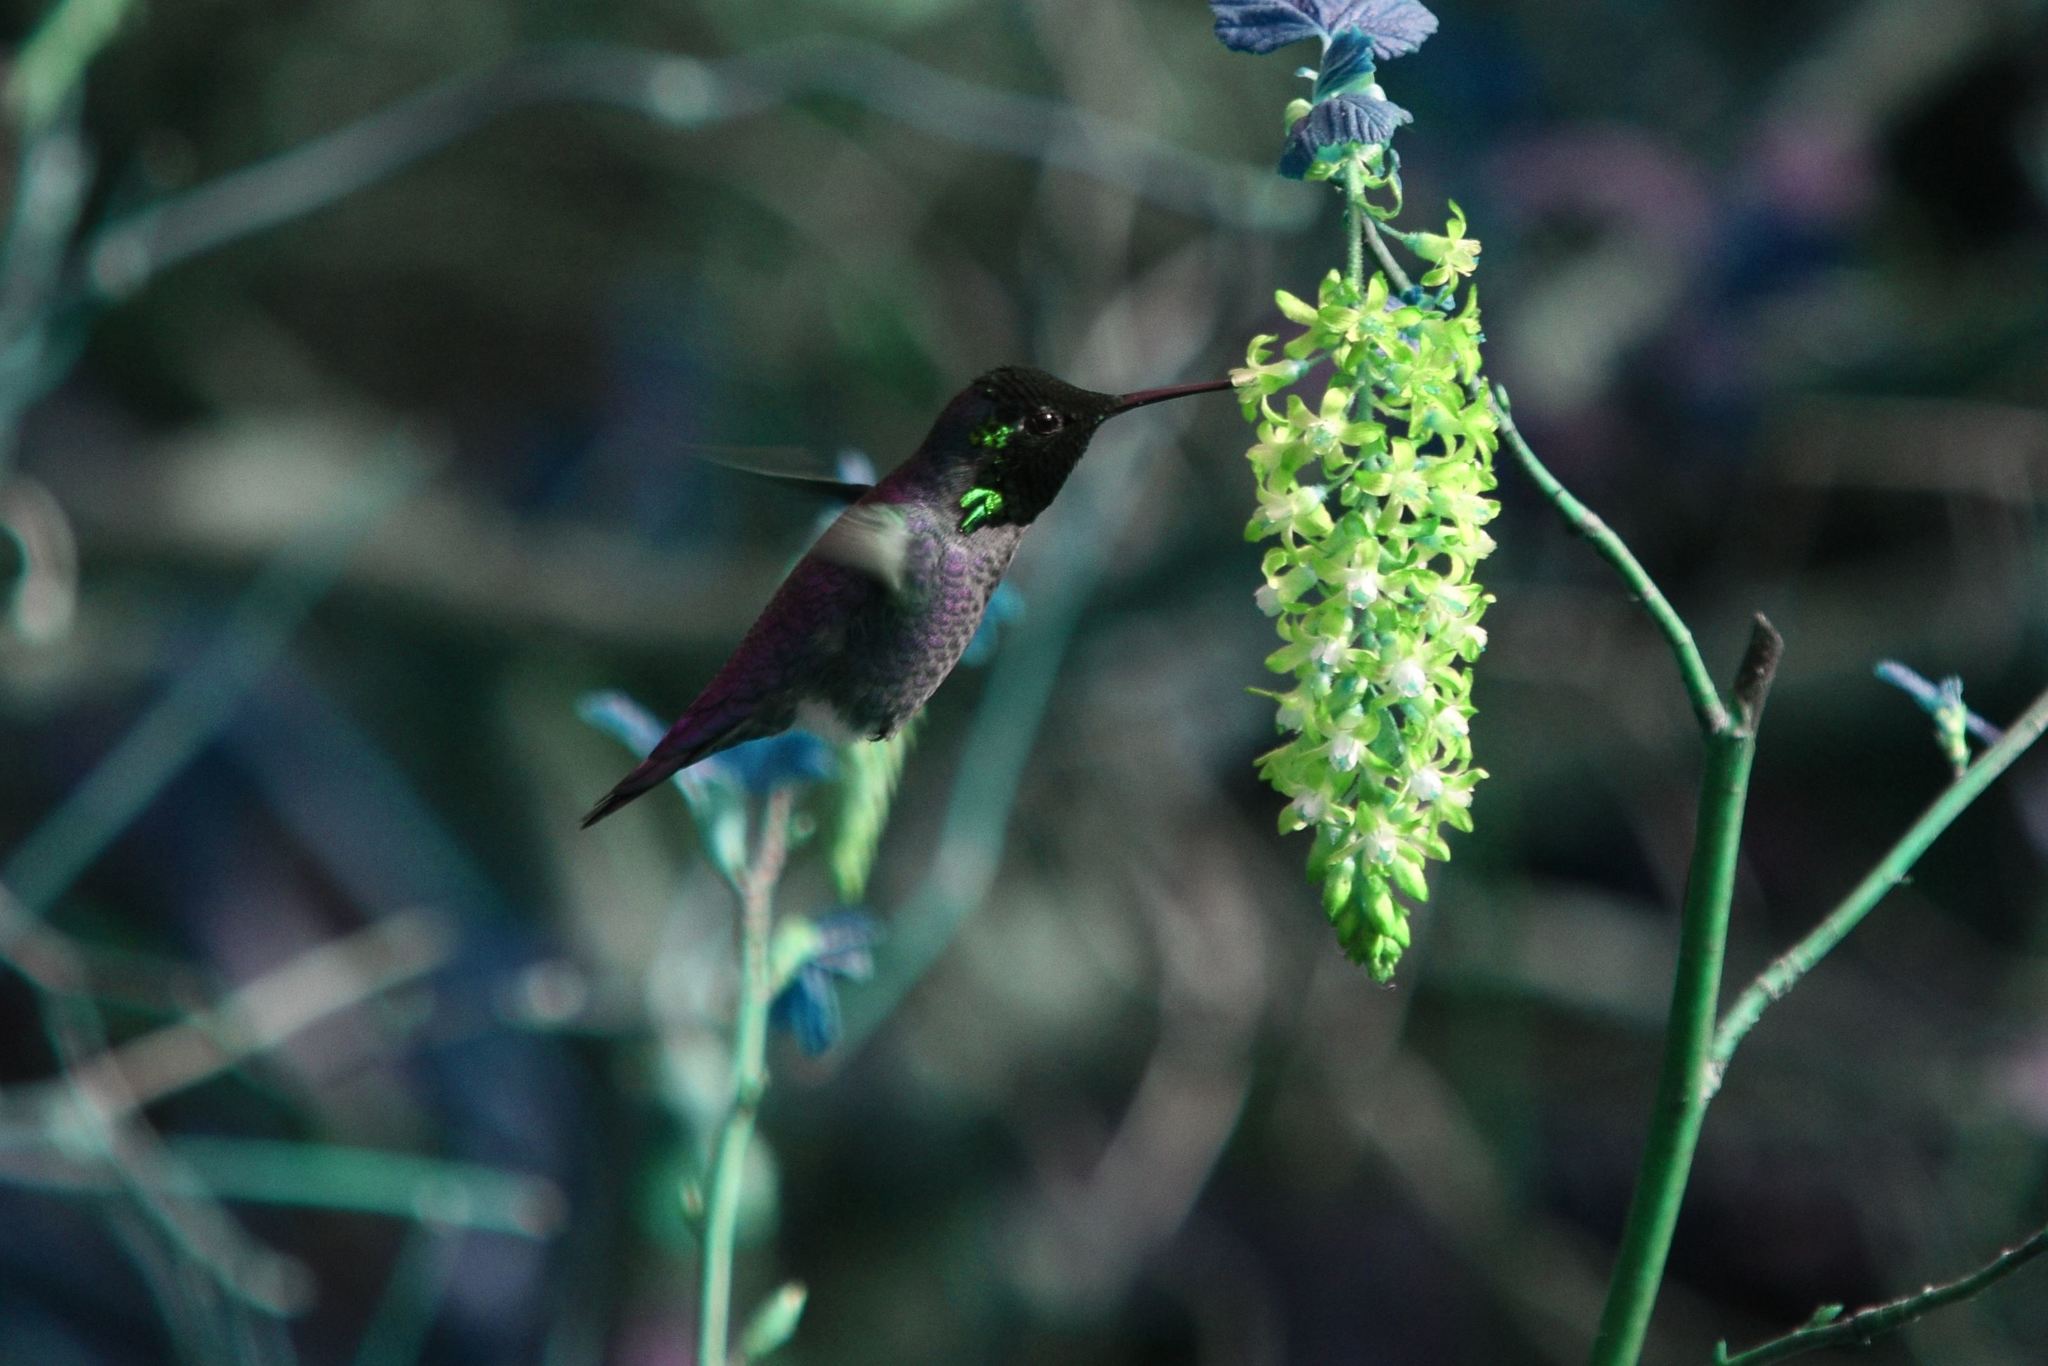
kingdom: Animalia
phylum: Chordata
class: Aves
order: Apodiformes
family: Trochilidae
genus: Calypte
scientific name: Calypte anna
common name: Anna's hummingbird
